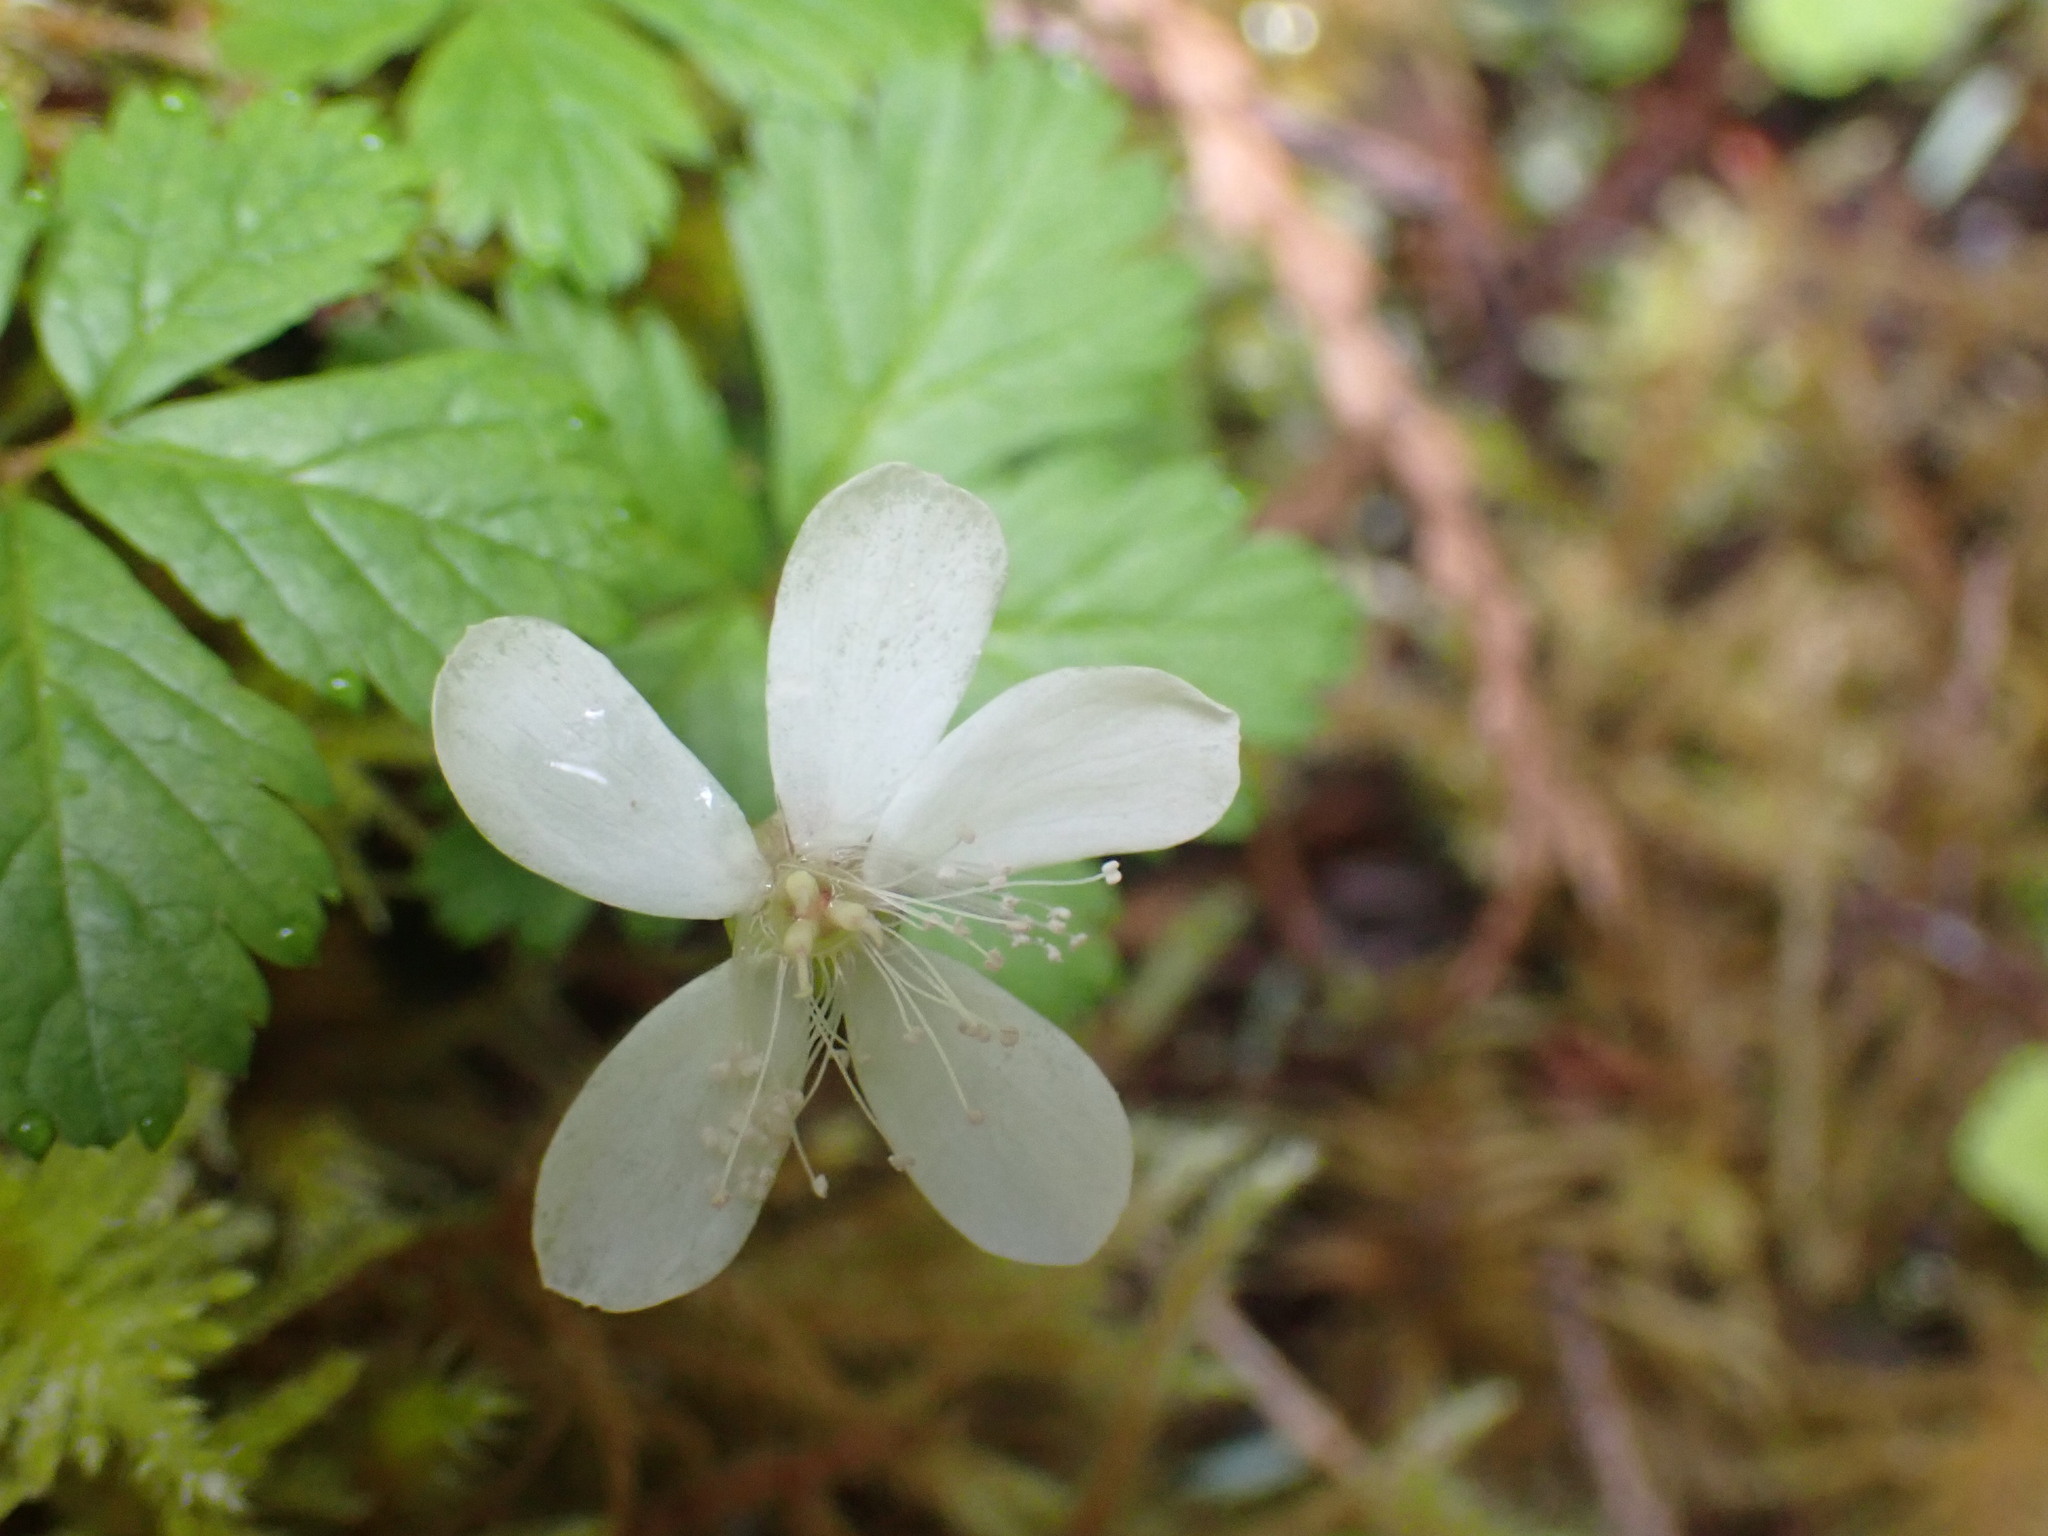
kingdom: Plantae
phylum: Tracheophyta
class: Magnoliopsida
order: Rosales
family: Rosaceae
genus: Rubus
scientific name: Rubus pedatus
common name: Creeping raspberry
